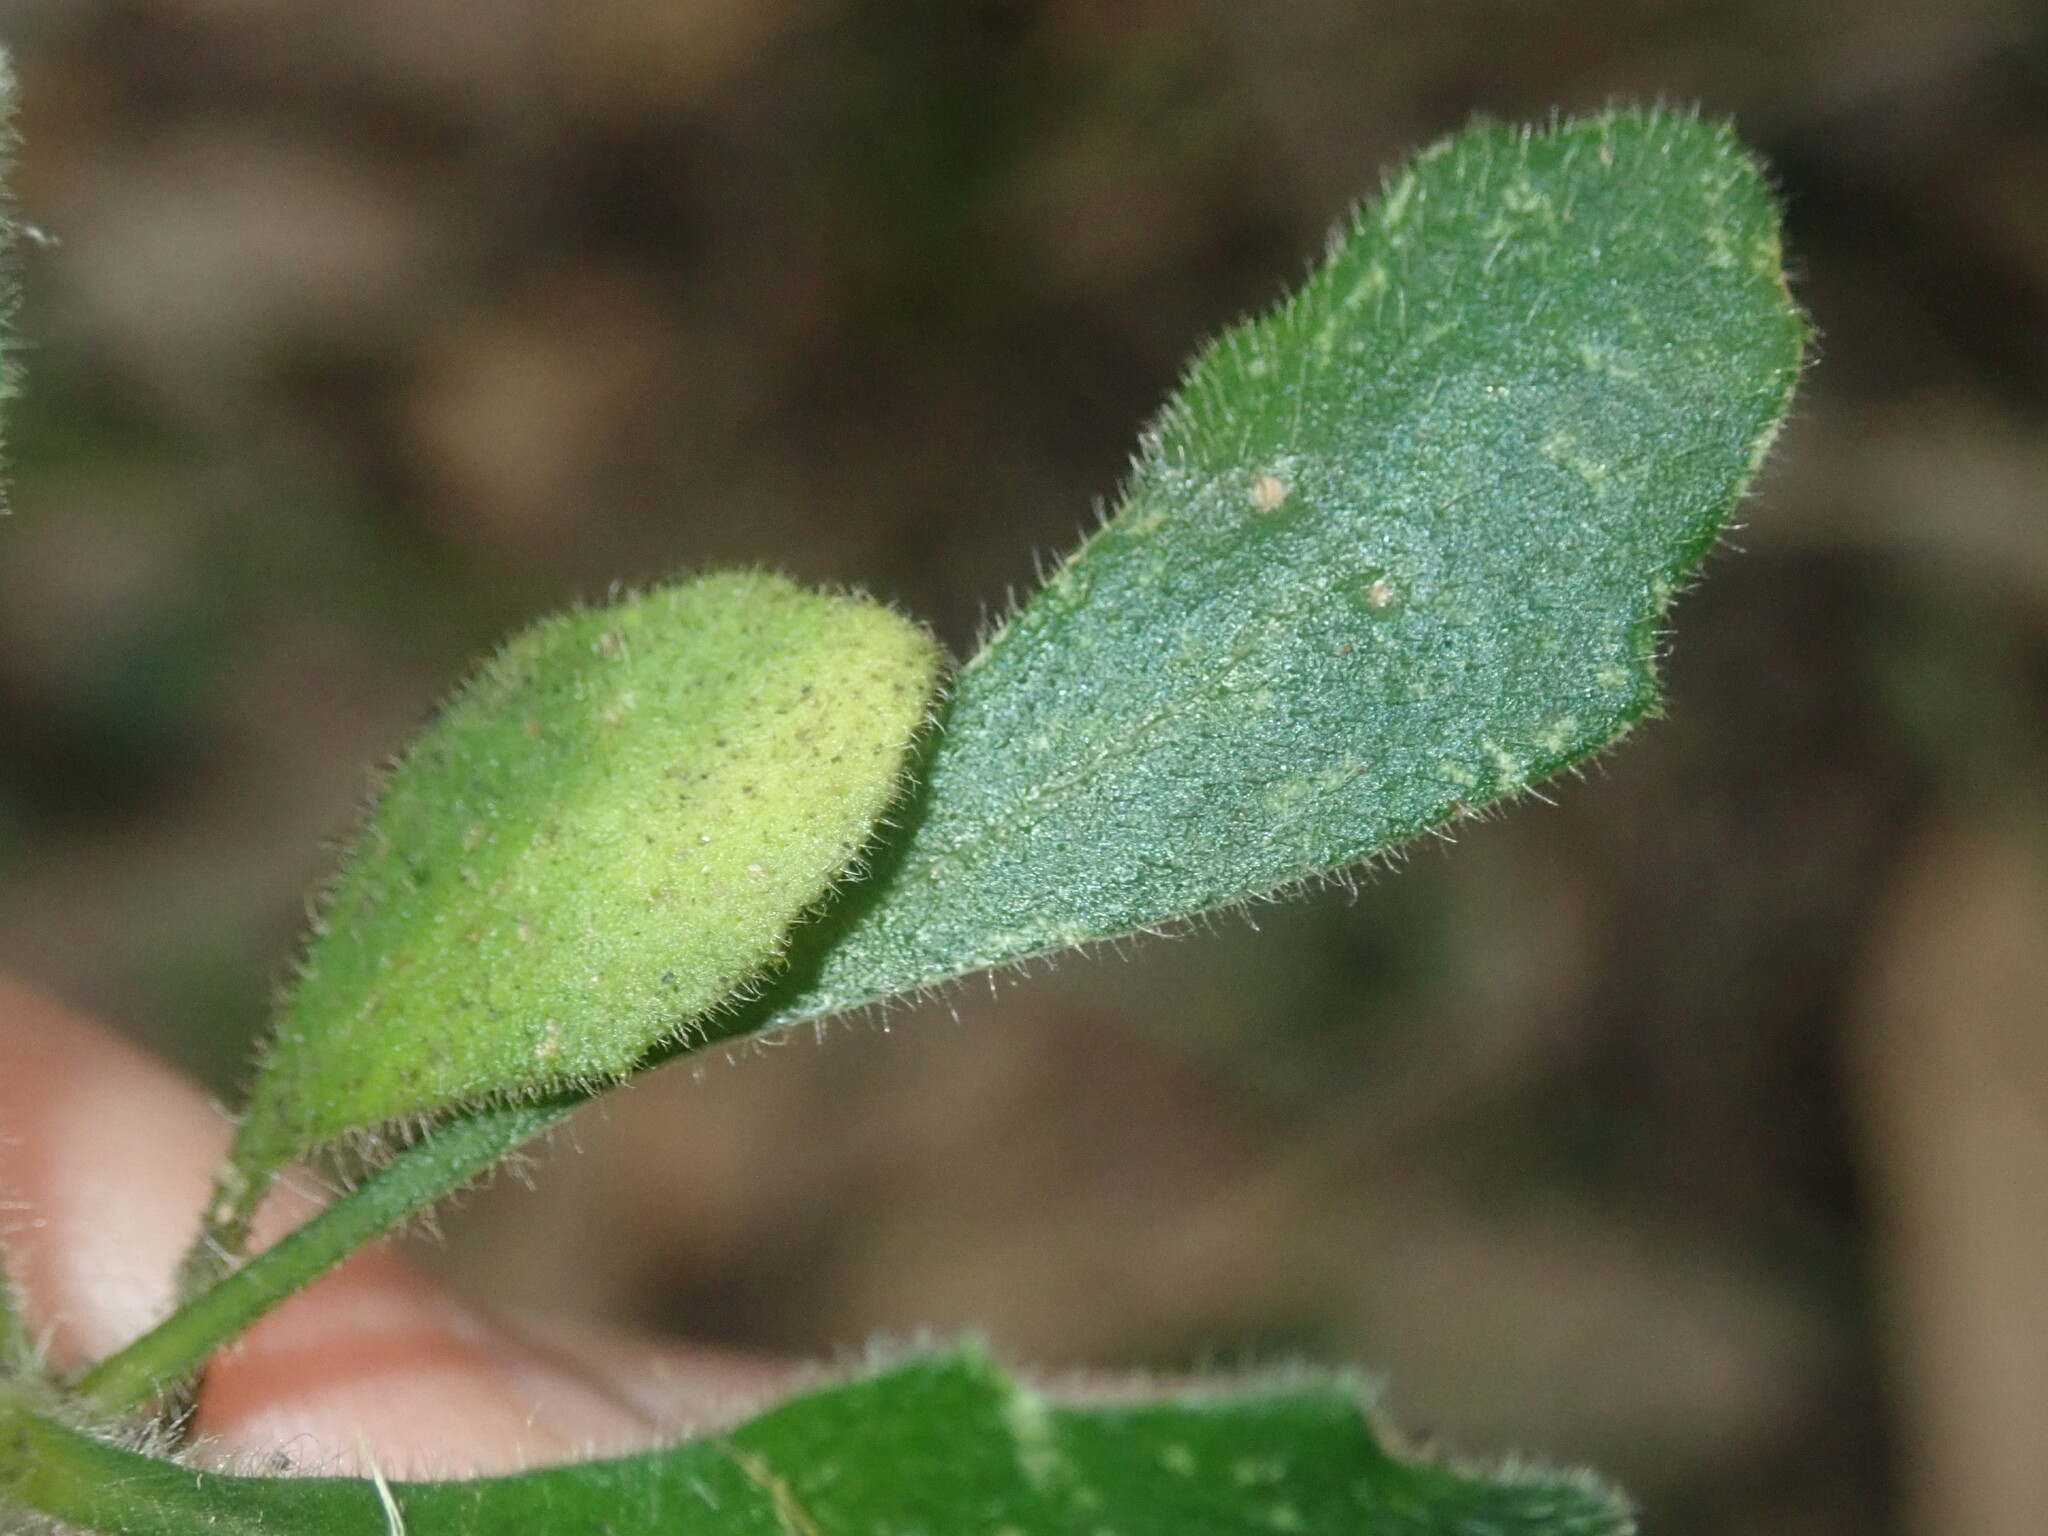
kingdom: Plantae
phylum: Tracheophyta
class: Magnoliopsida
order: Asterales
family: Asteraceae
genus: Lagenophora
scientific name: Lagenophora sublyrata ter
